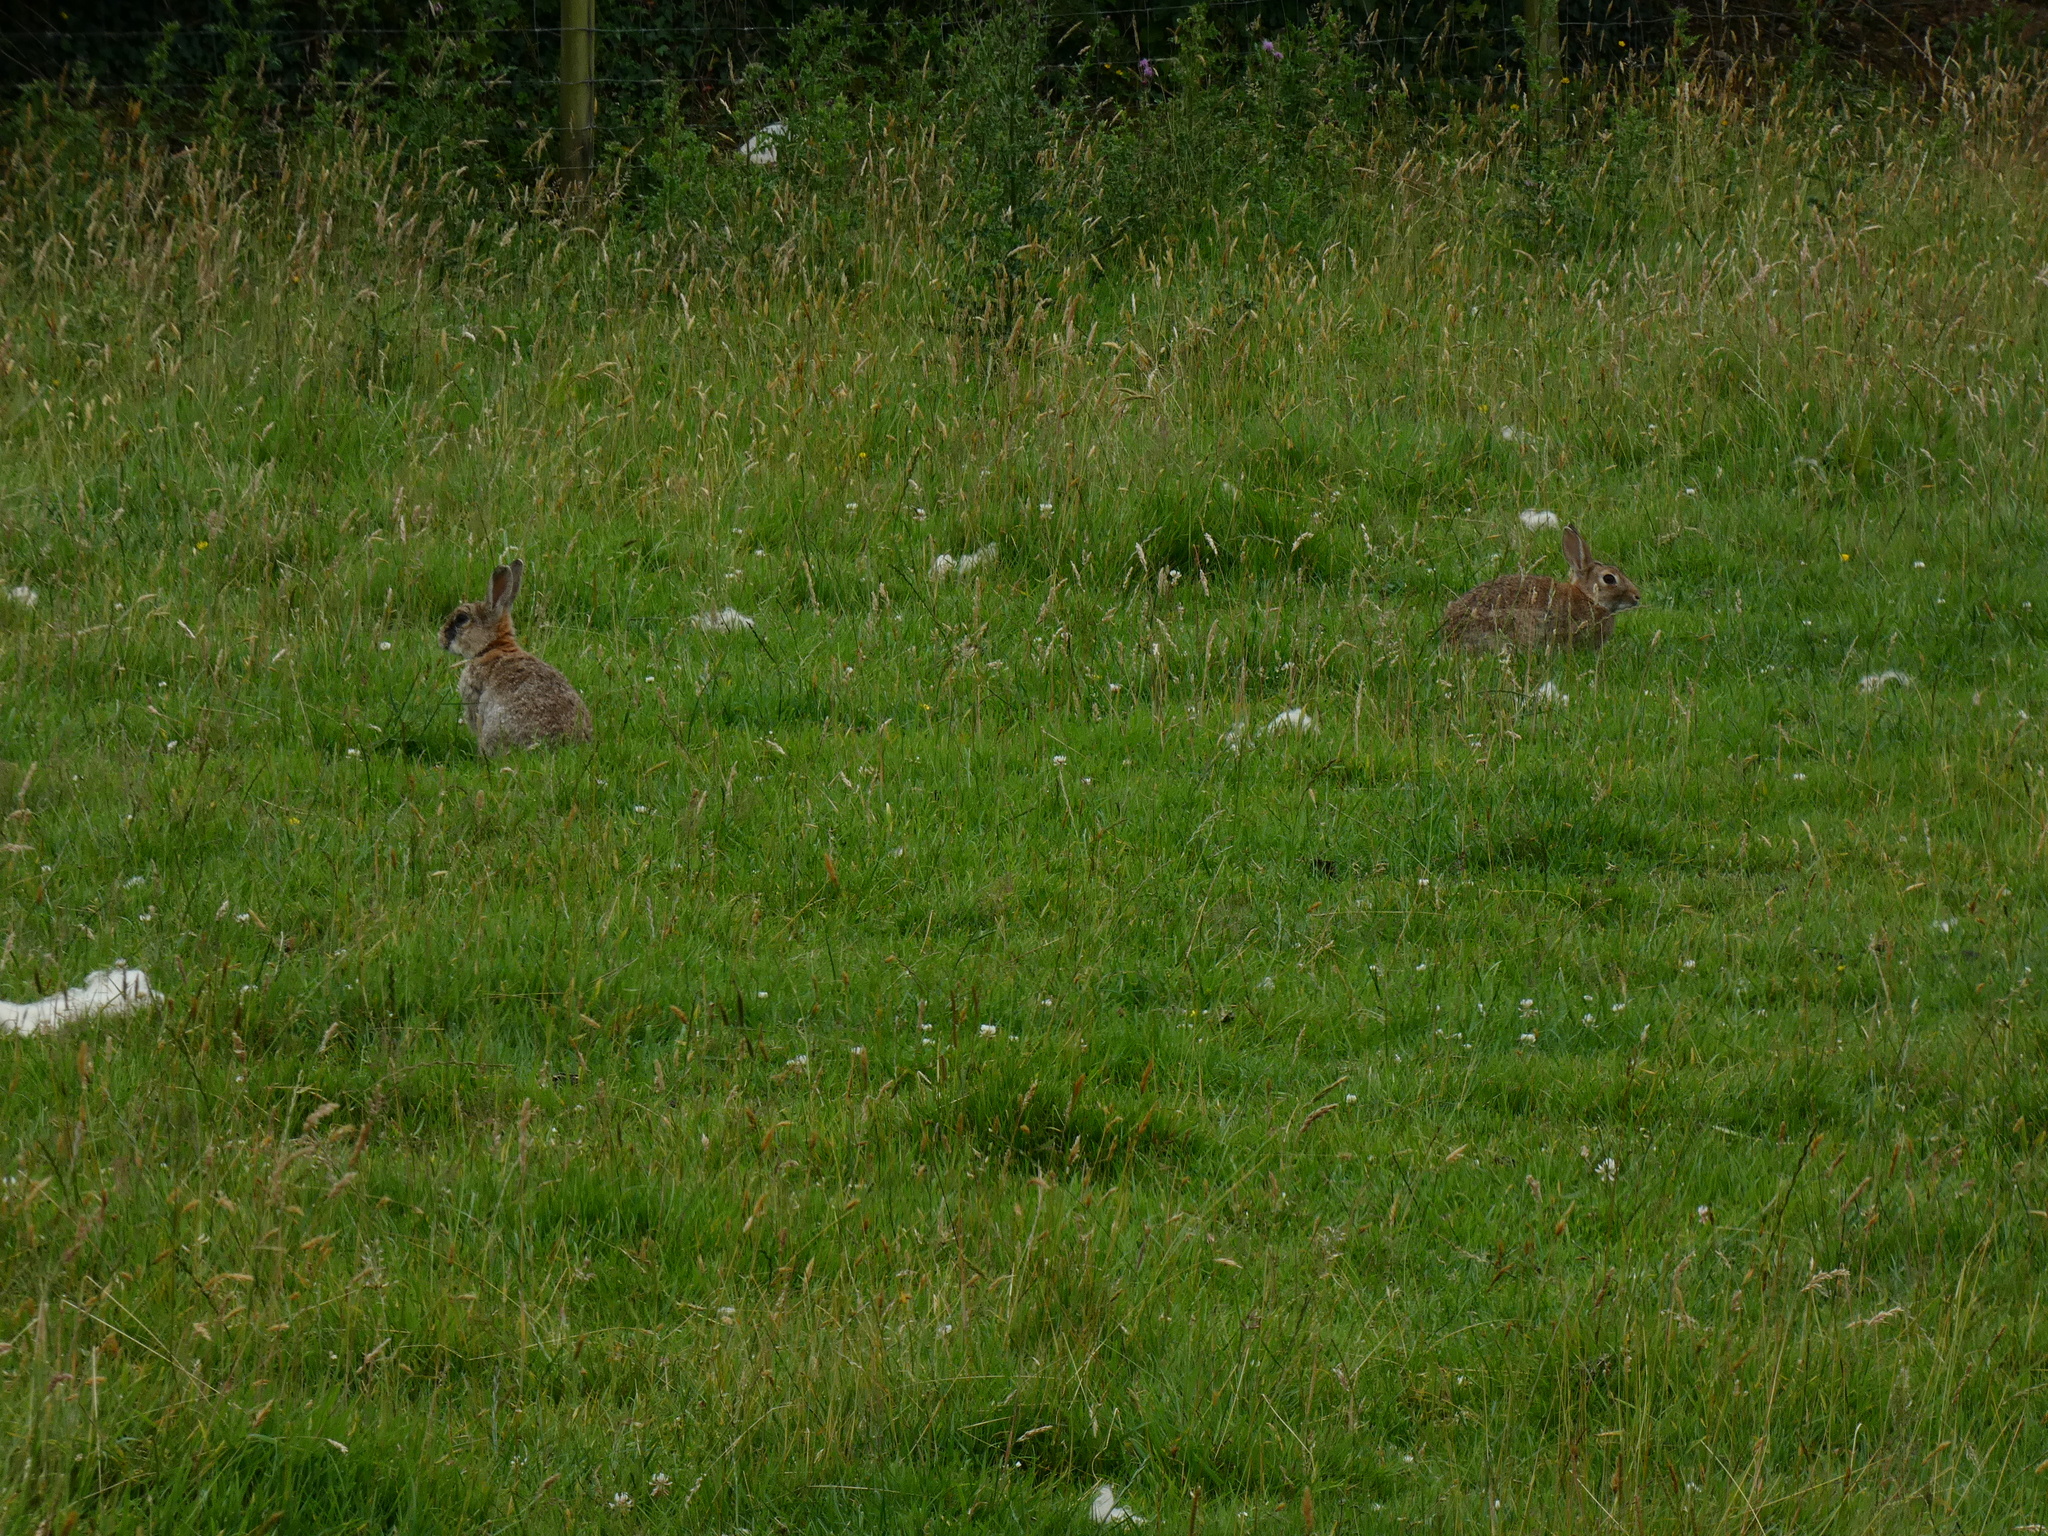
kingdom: Animalia
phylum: Chordata
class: Mammalia
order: Lagomorpha
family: Leporidae
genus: Oryctolagus
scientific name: Oryctolagus cuniculus
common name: European rabbit
